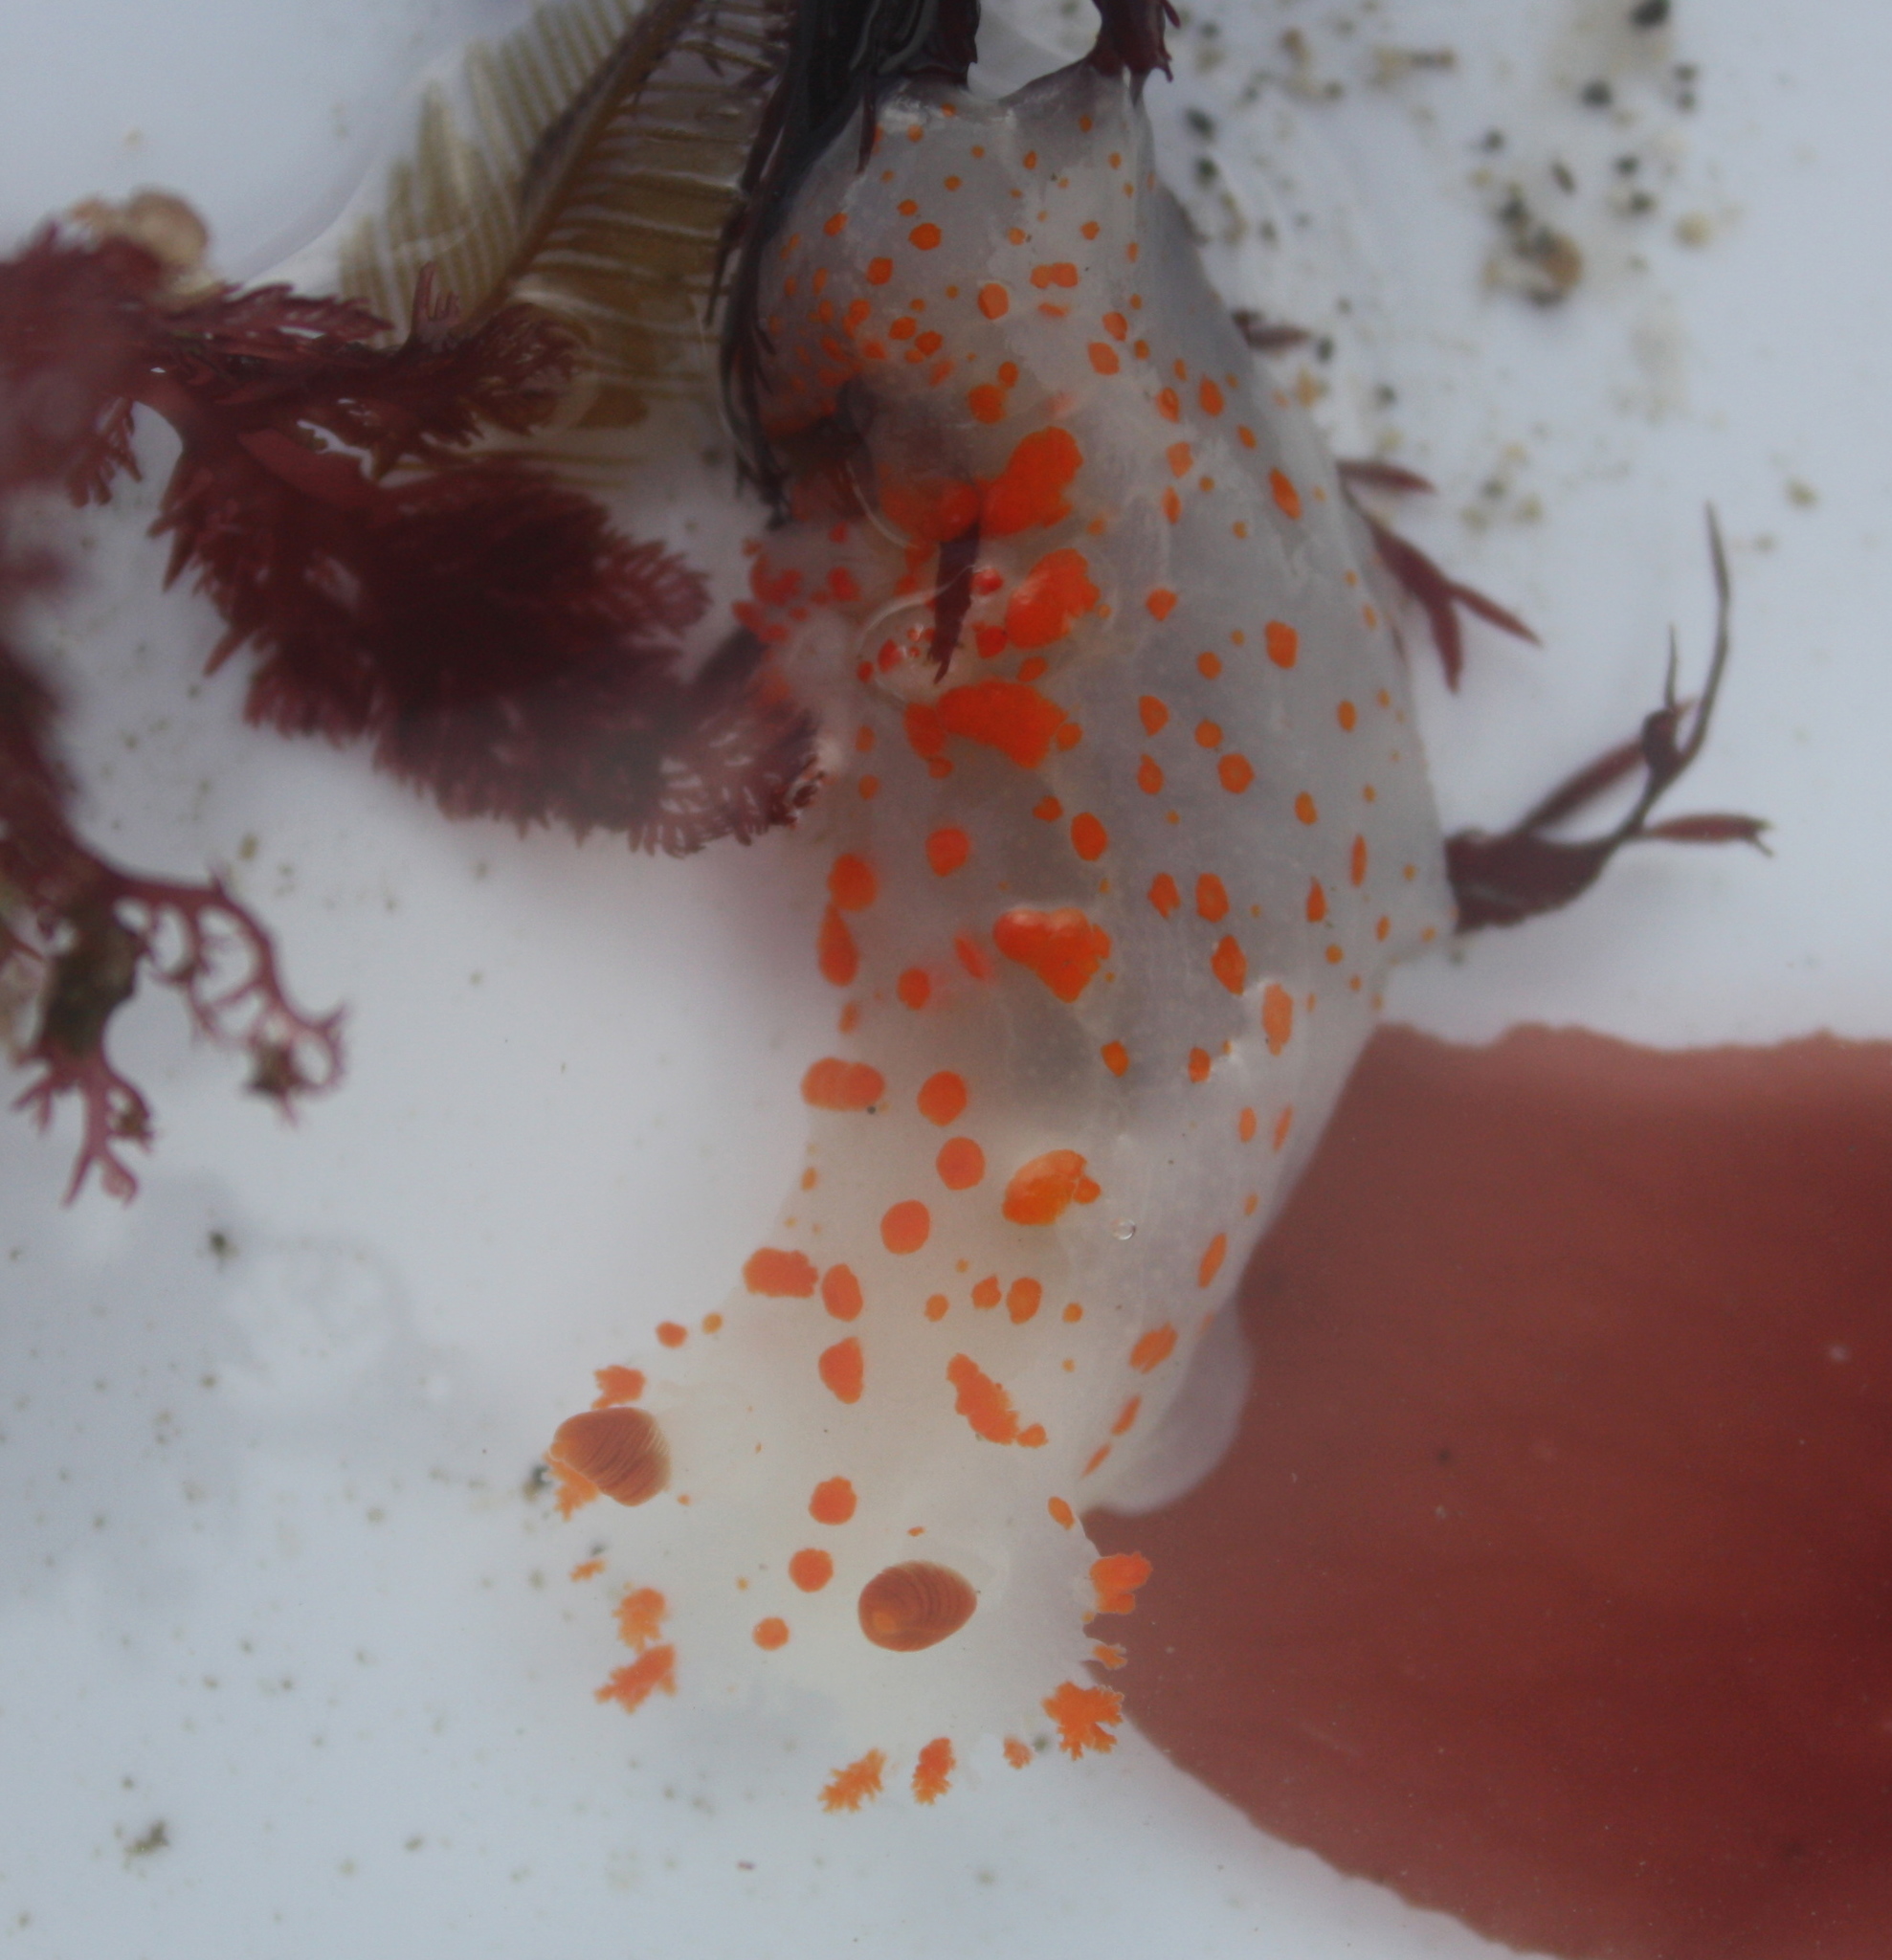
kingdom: Animalia
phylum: Mollusca
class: Gastropoda
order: Nudibranchia
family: Polyceridae
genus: Triopha
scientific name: Triopha catalinae
